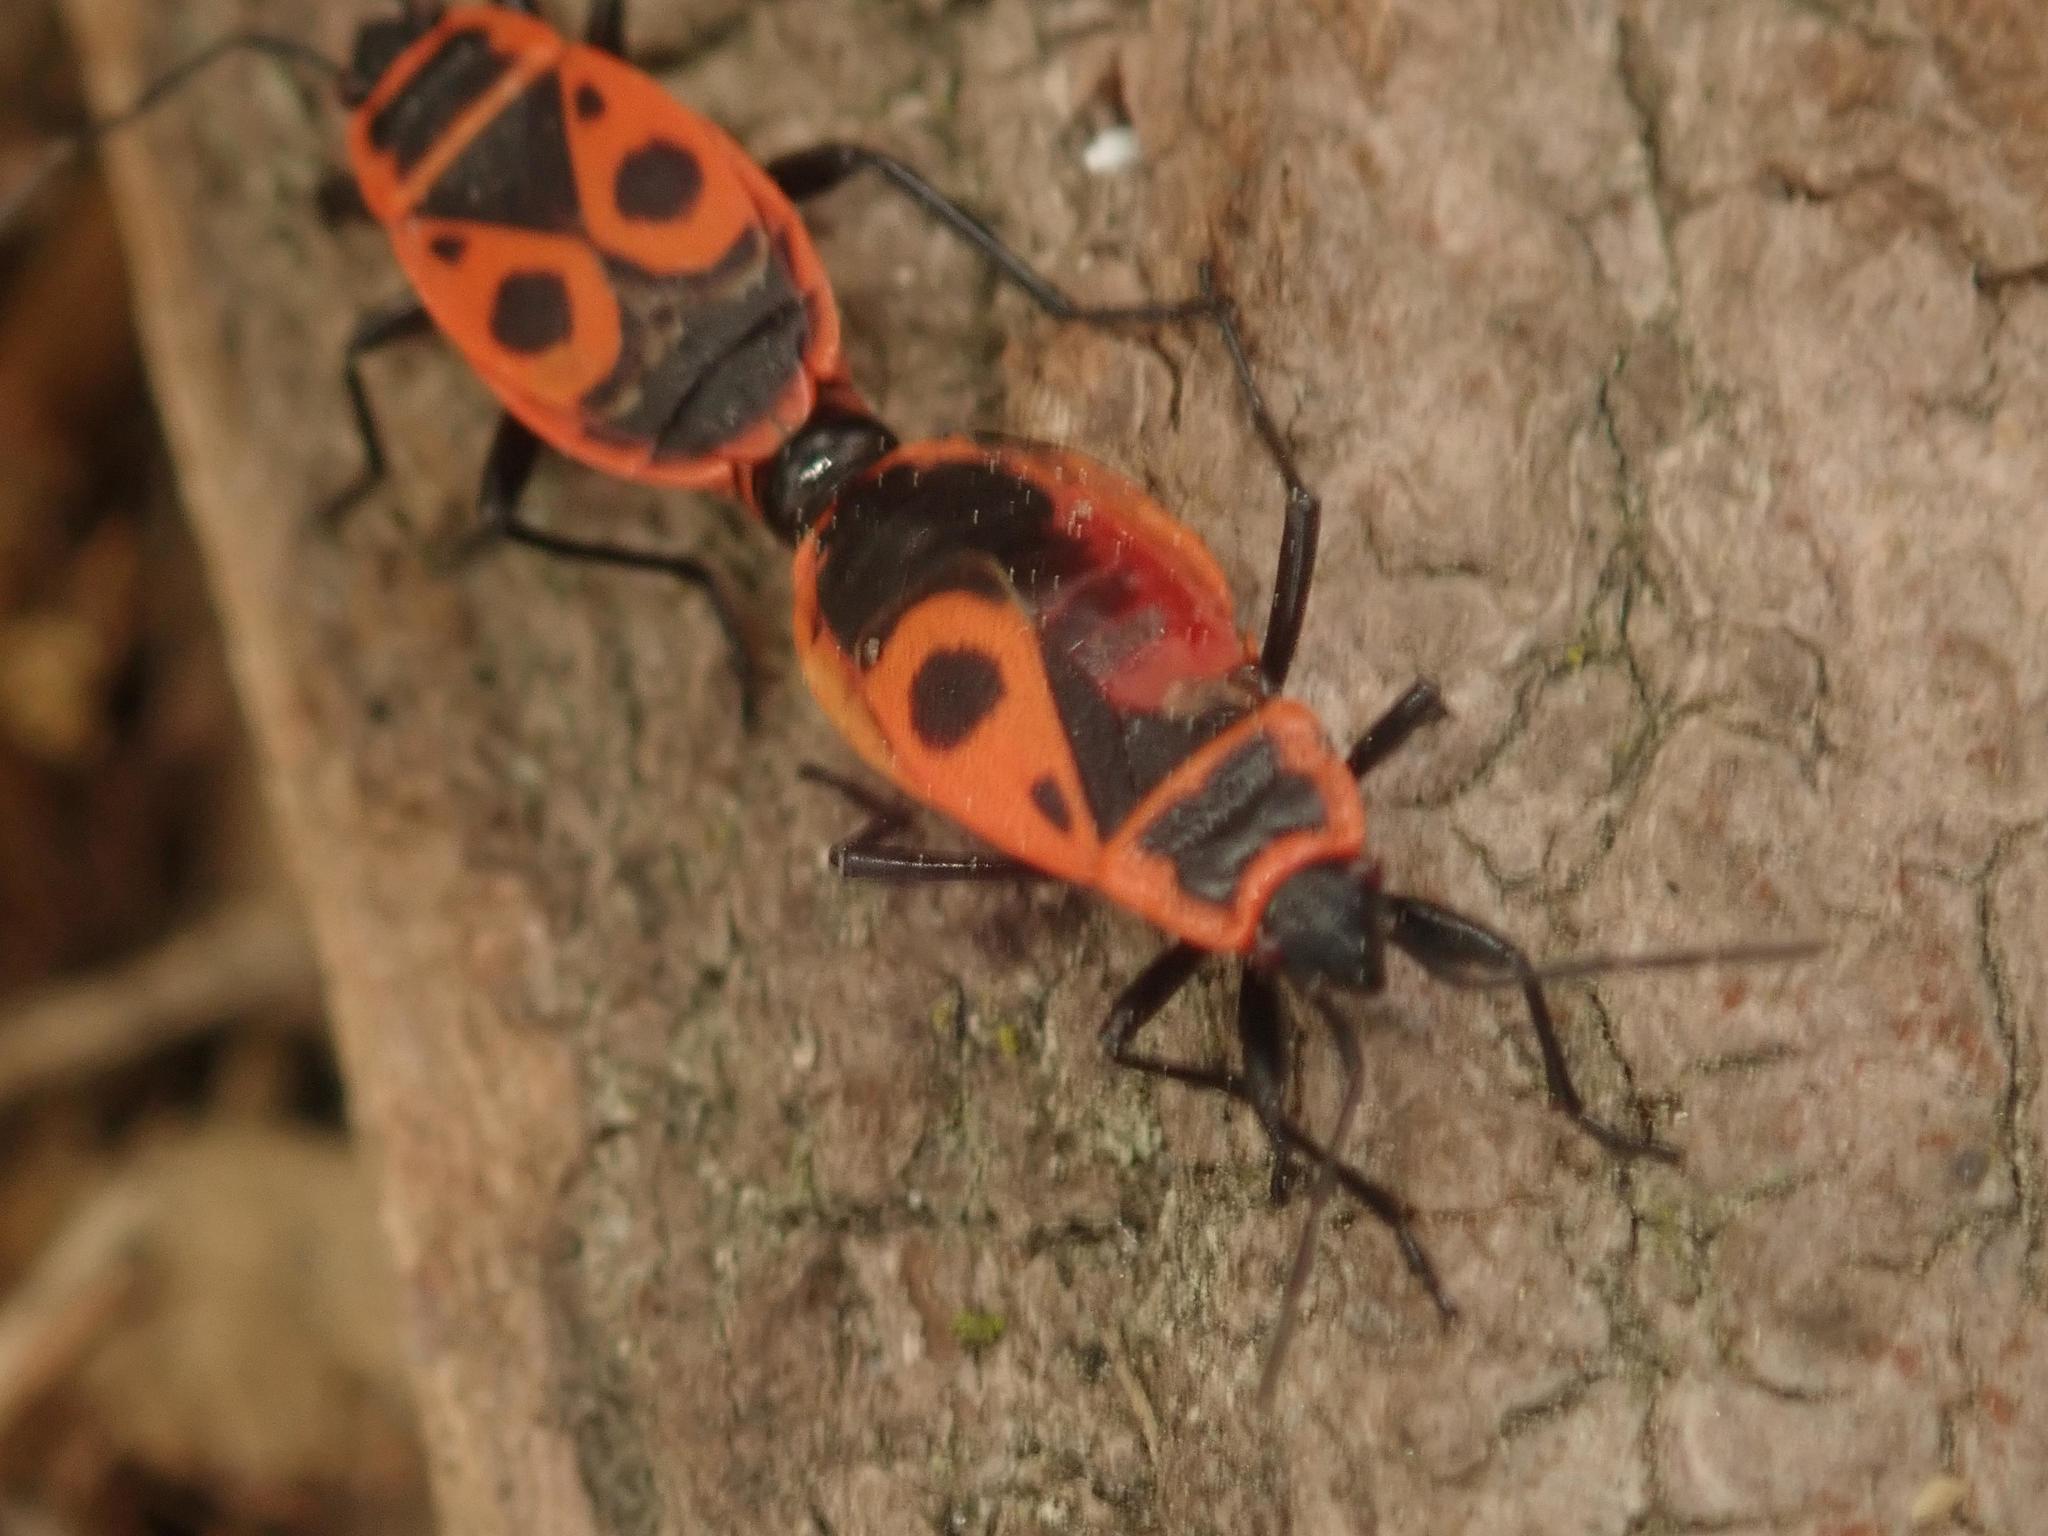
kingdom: Animalia
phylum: Arthropoda
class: Insecta
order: Hemiptera
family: Pyrrhocoridae
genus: Pyrrhocoris
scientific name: Pyrrhocoris apterus
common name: Firebug
